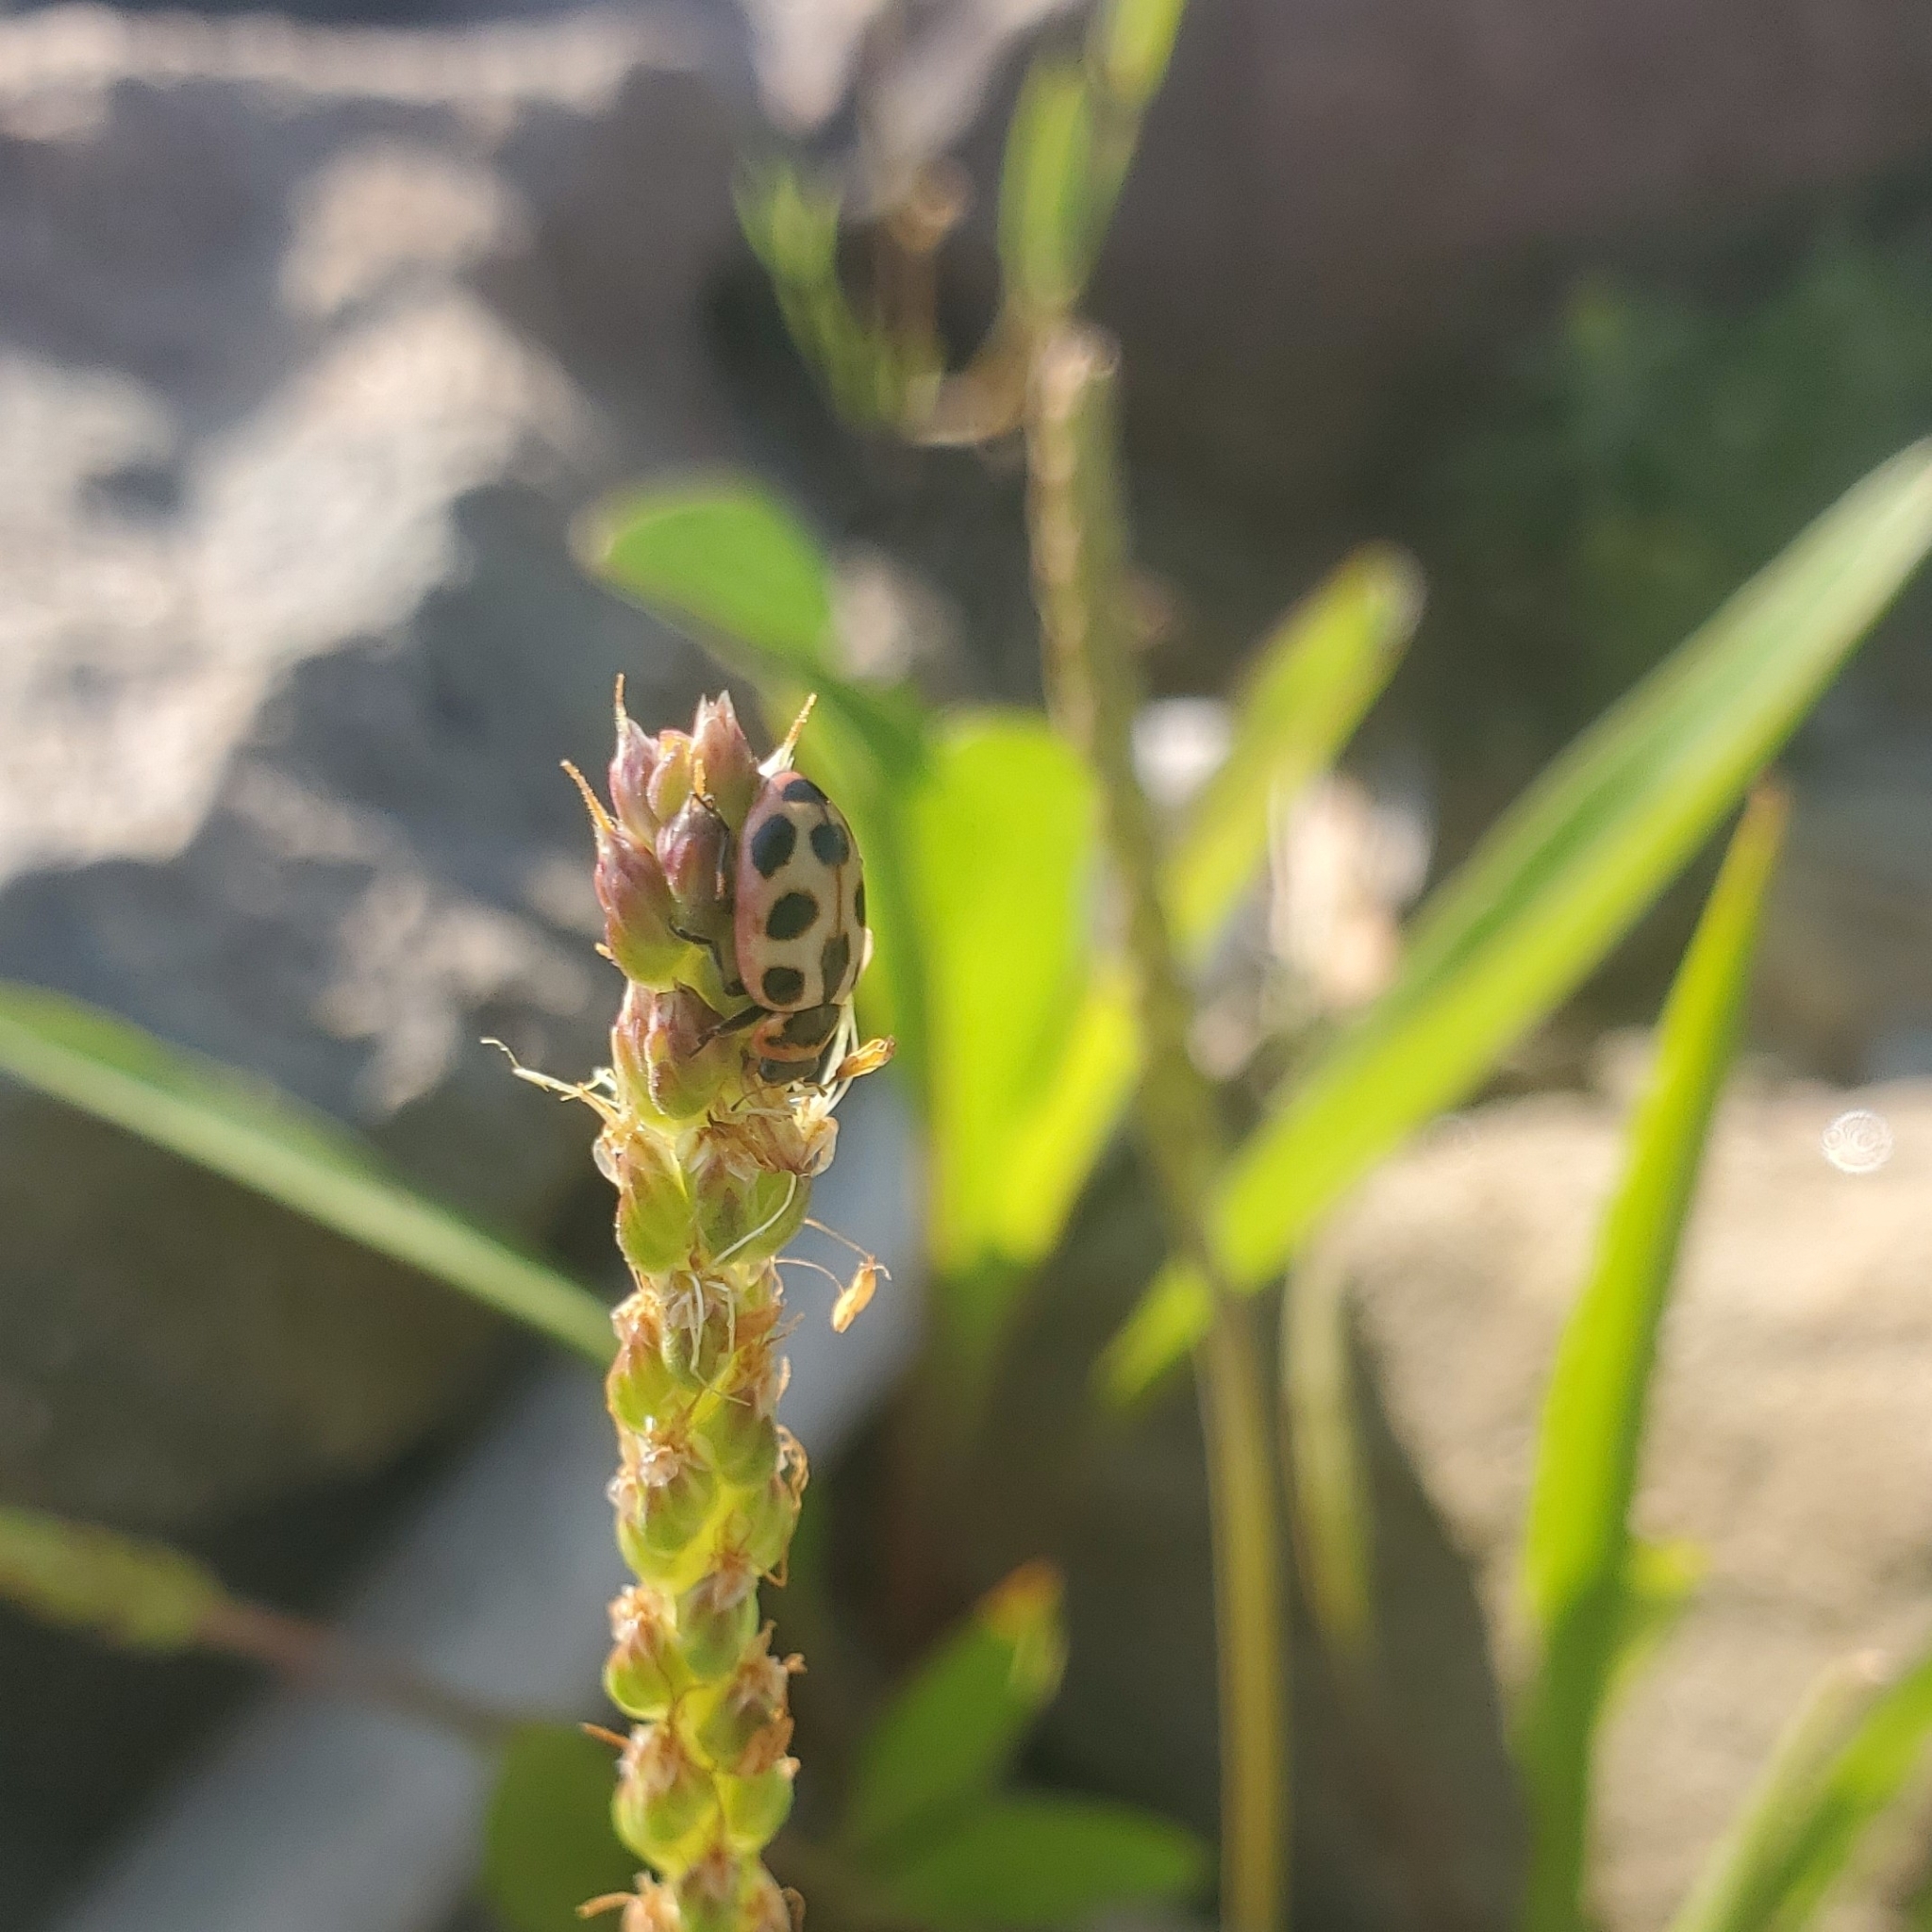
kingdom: Animalia
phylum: Arthropoda
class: Insecta
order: Coleoptera
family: Coccinellidae
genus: Naemia
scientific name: Naemia seriata
